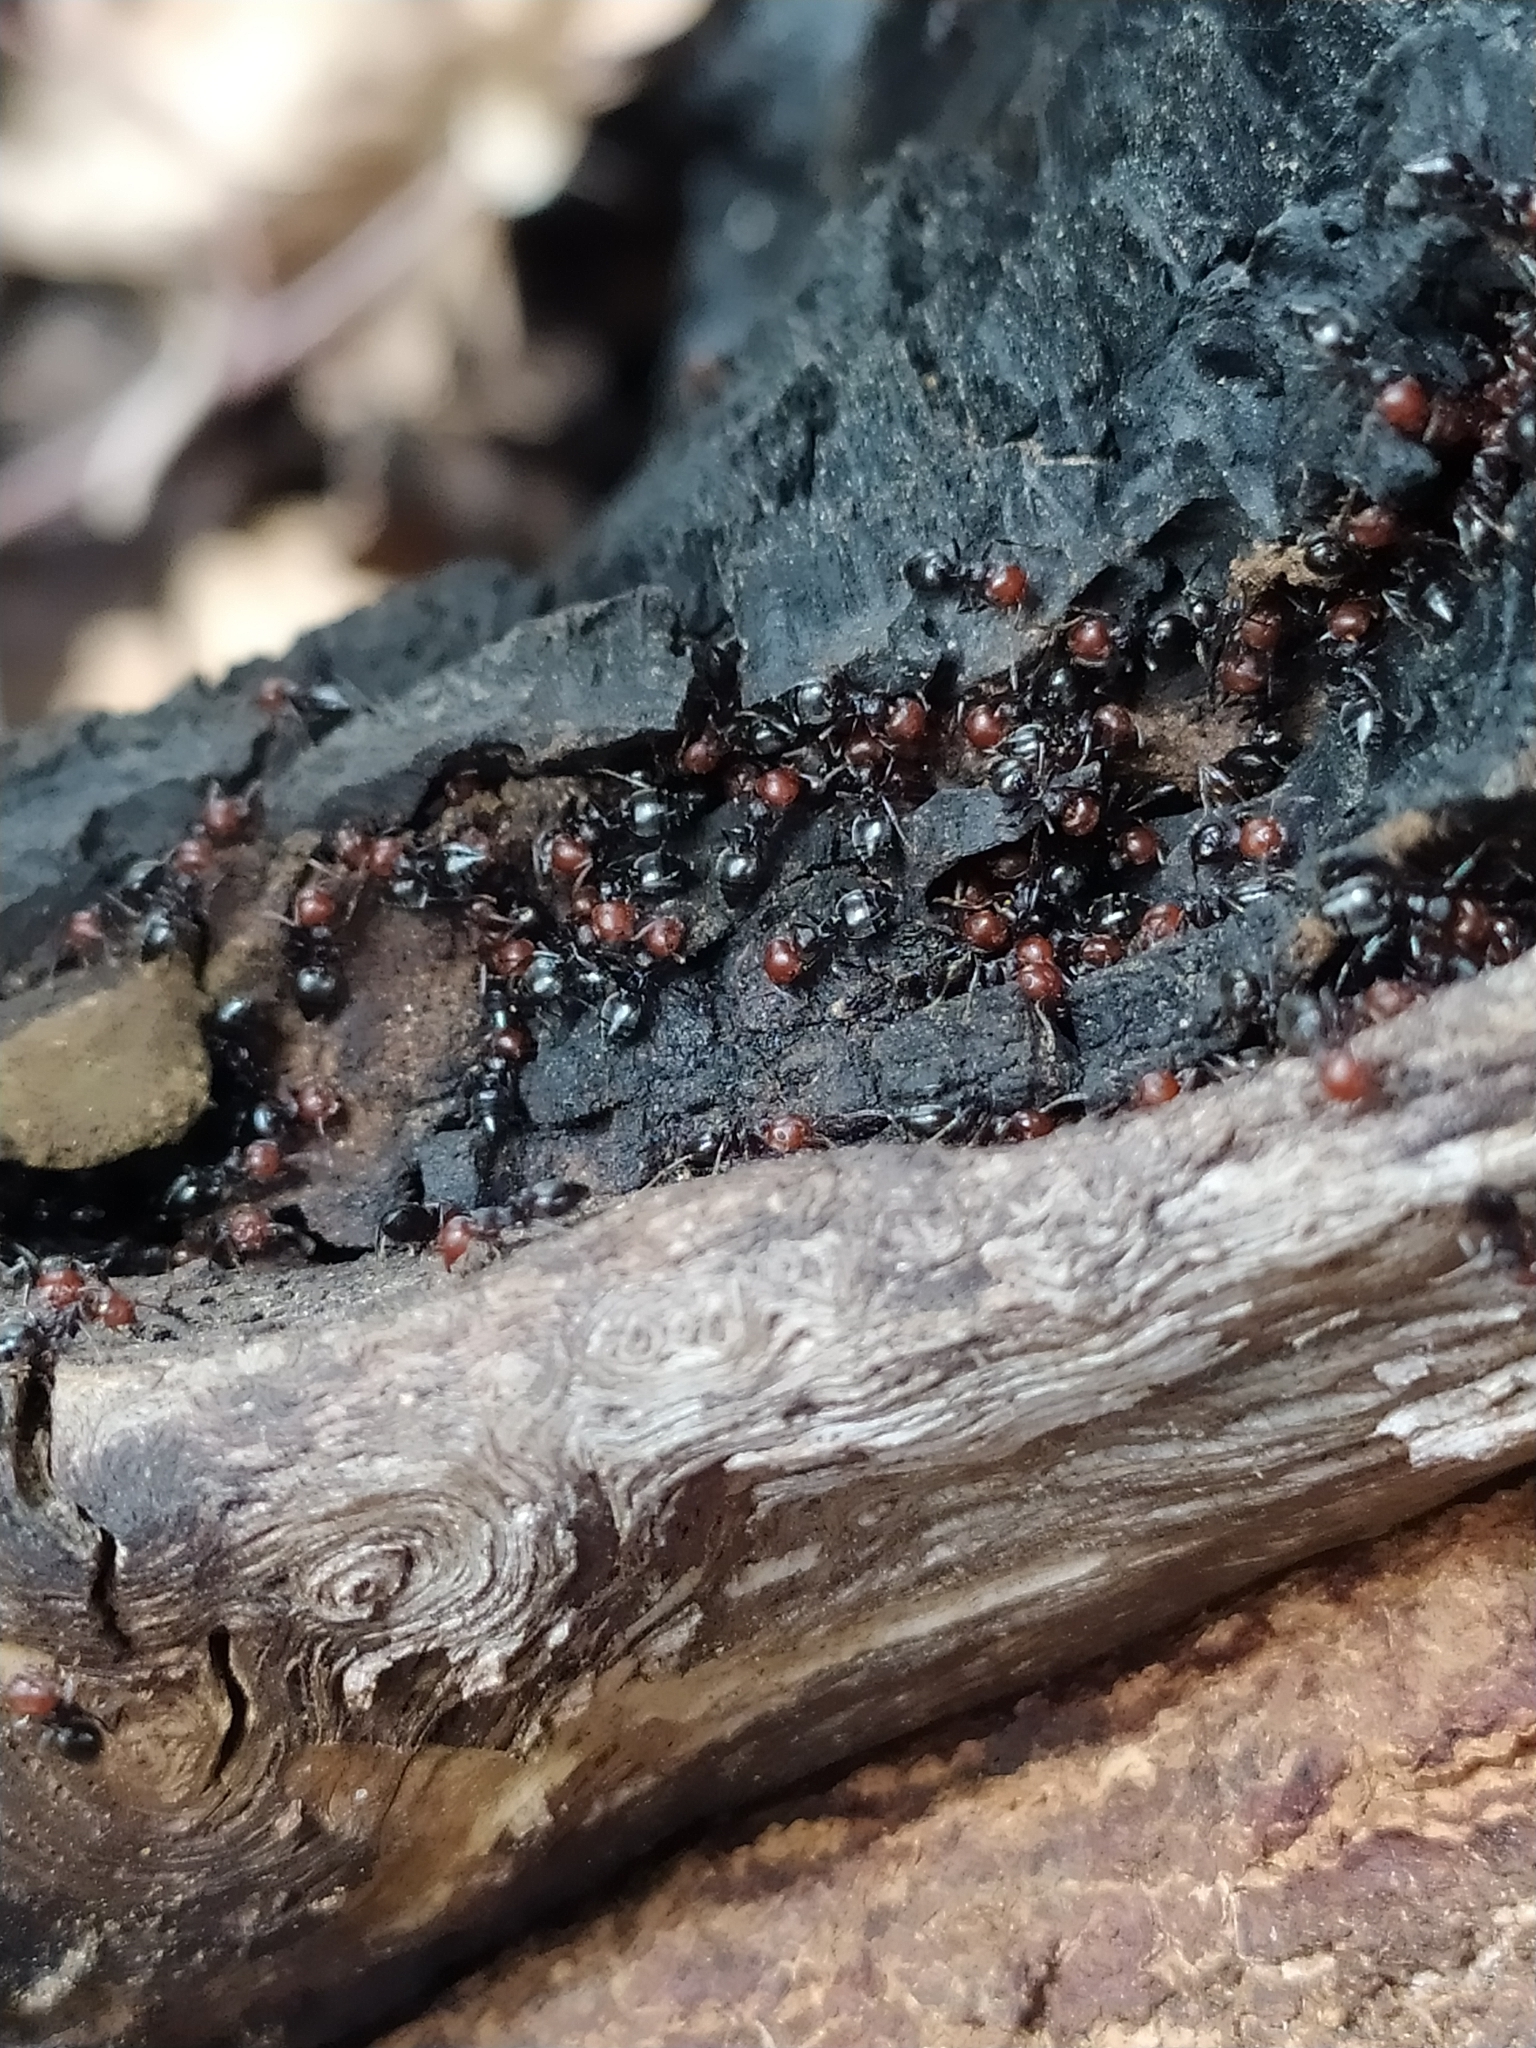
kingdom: Animalia
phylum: Arthropoda
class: Insecta
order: Hymenoptera
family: Formicidae
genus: Crematogaster
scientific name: Crematogaster scutellaris
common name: Fourmi du liège
